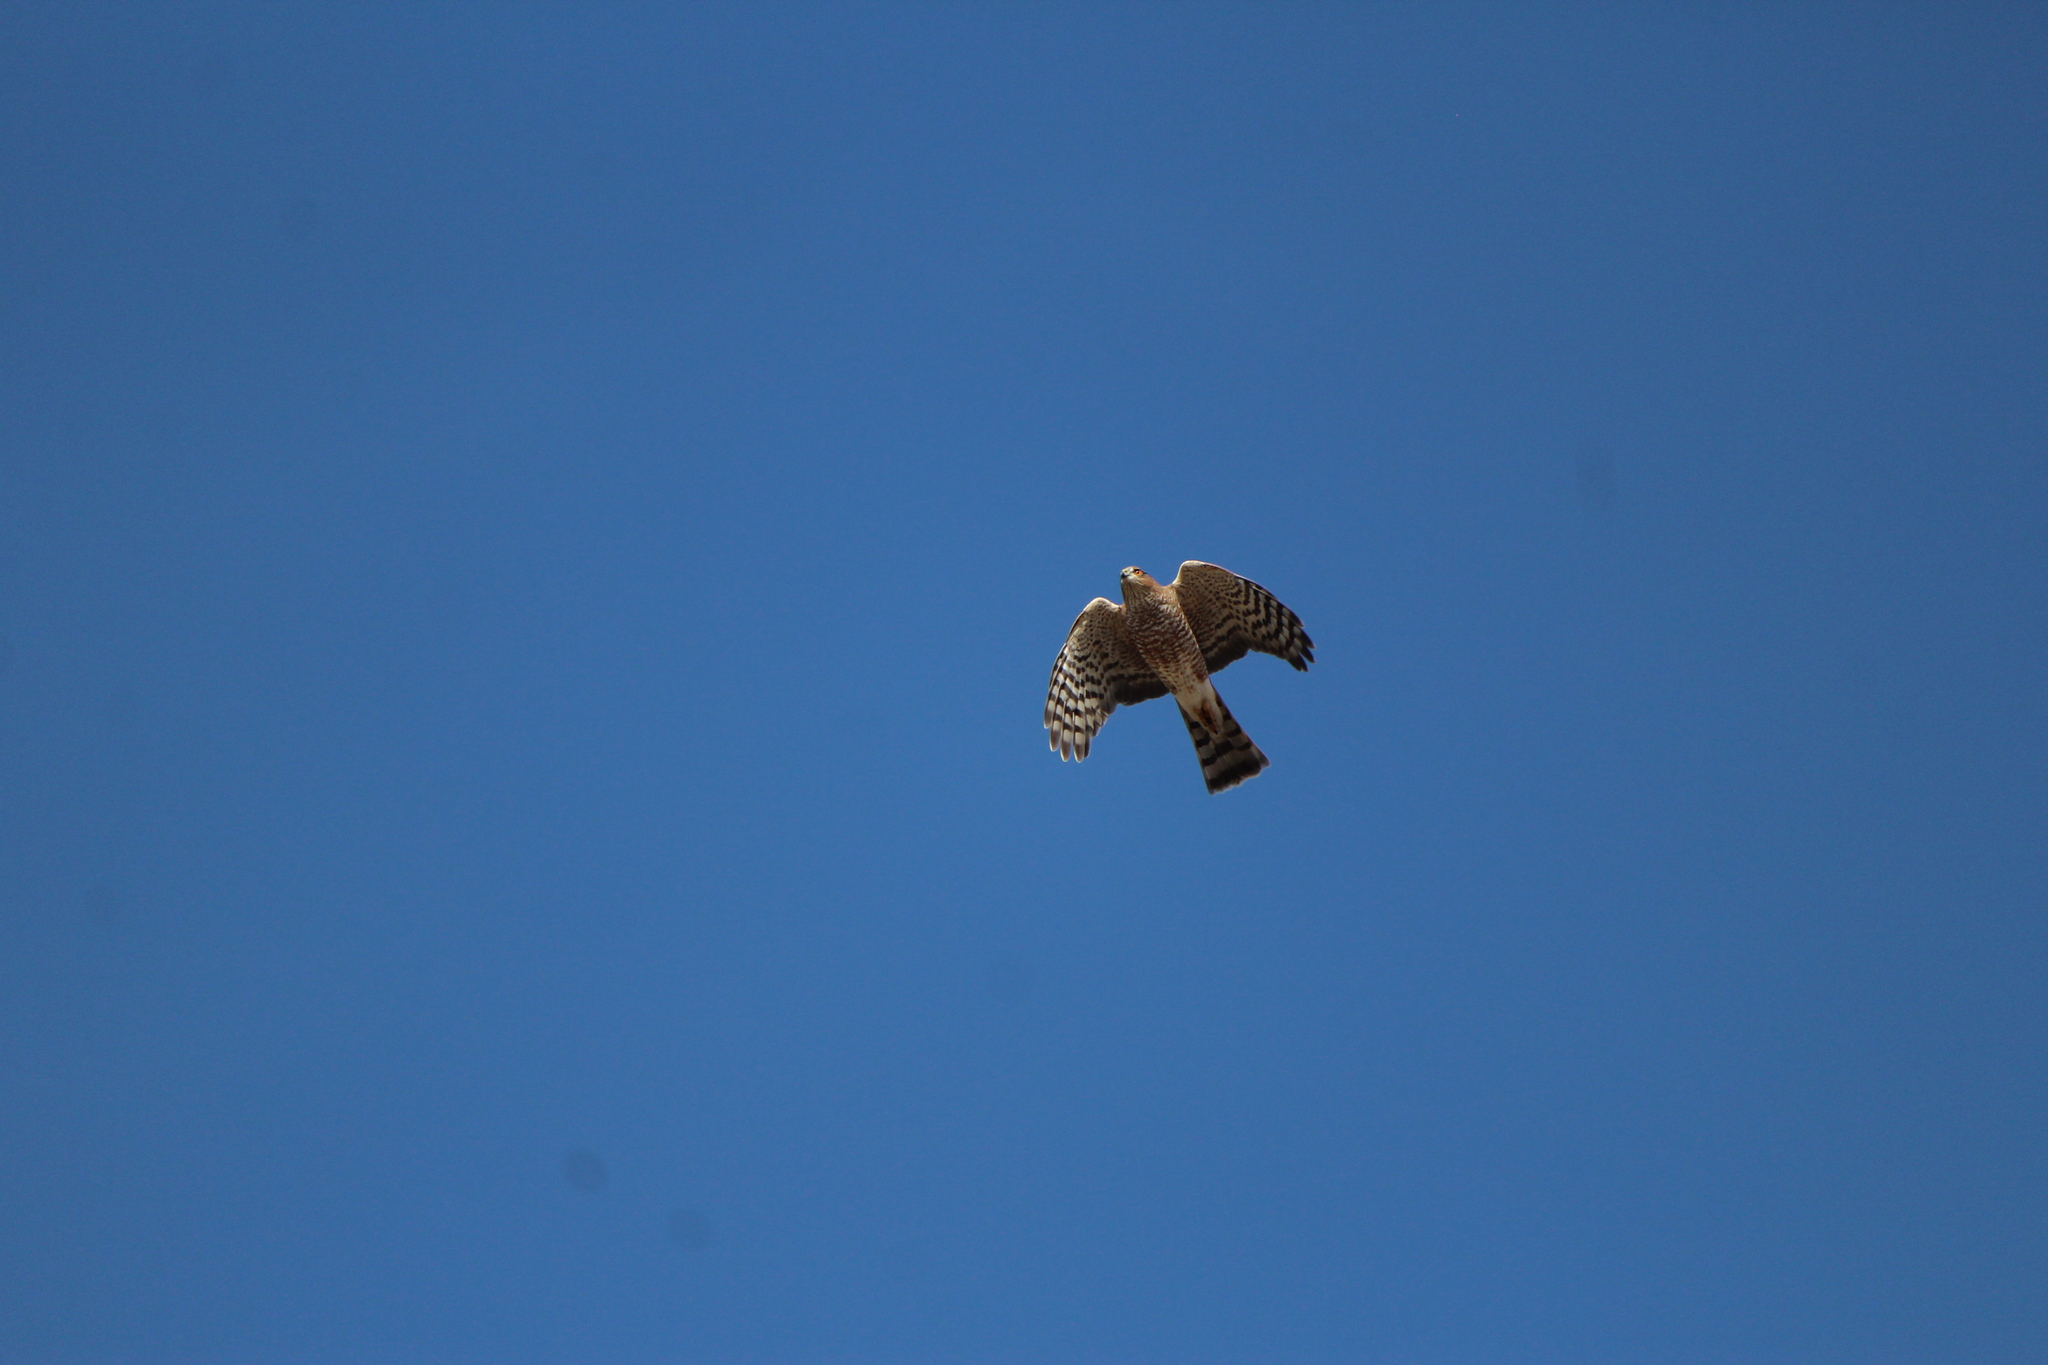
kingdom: Animalia
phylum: Chordata
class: Aves
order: Accipitriformes
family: Accipitridae
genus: Accipiter
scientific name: Accipiter striatus
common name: Sharp-shinned hawk
